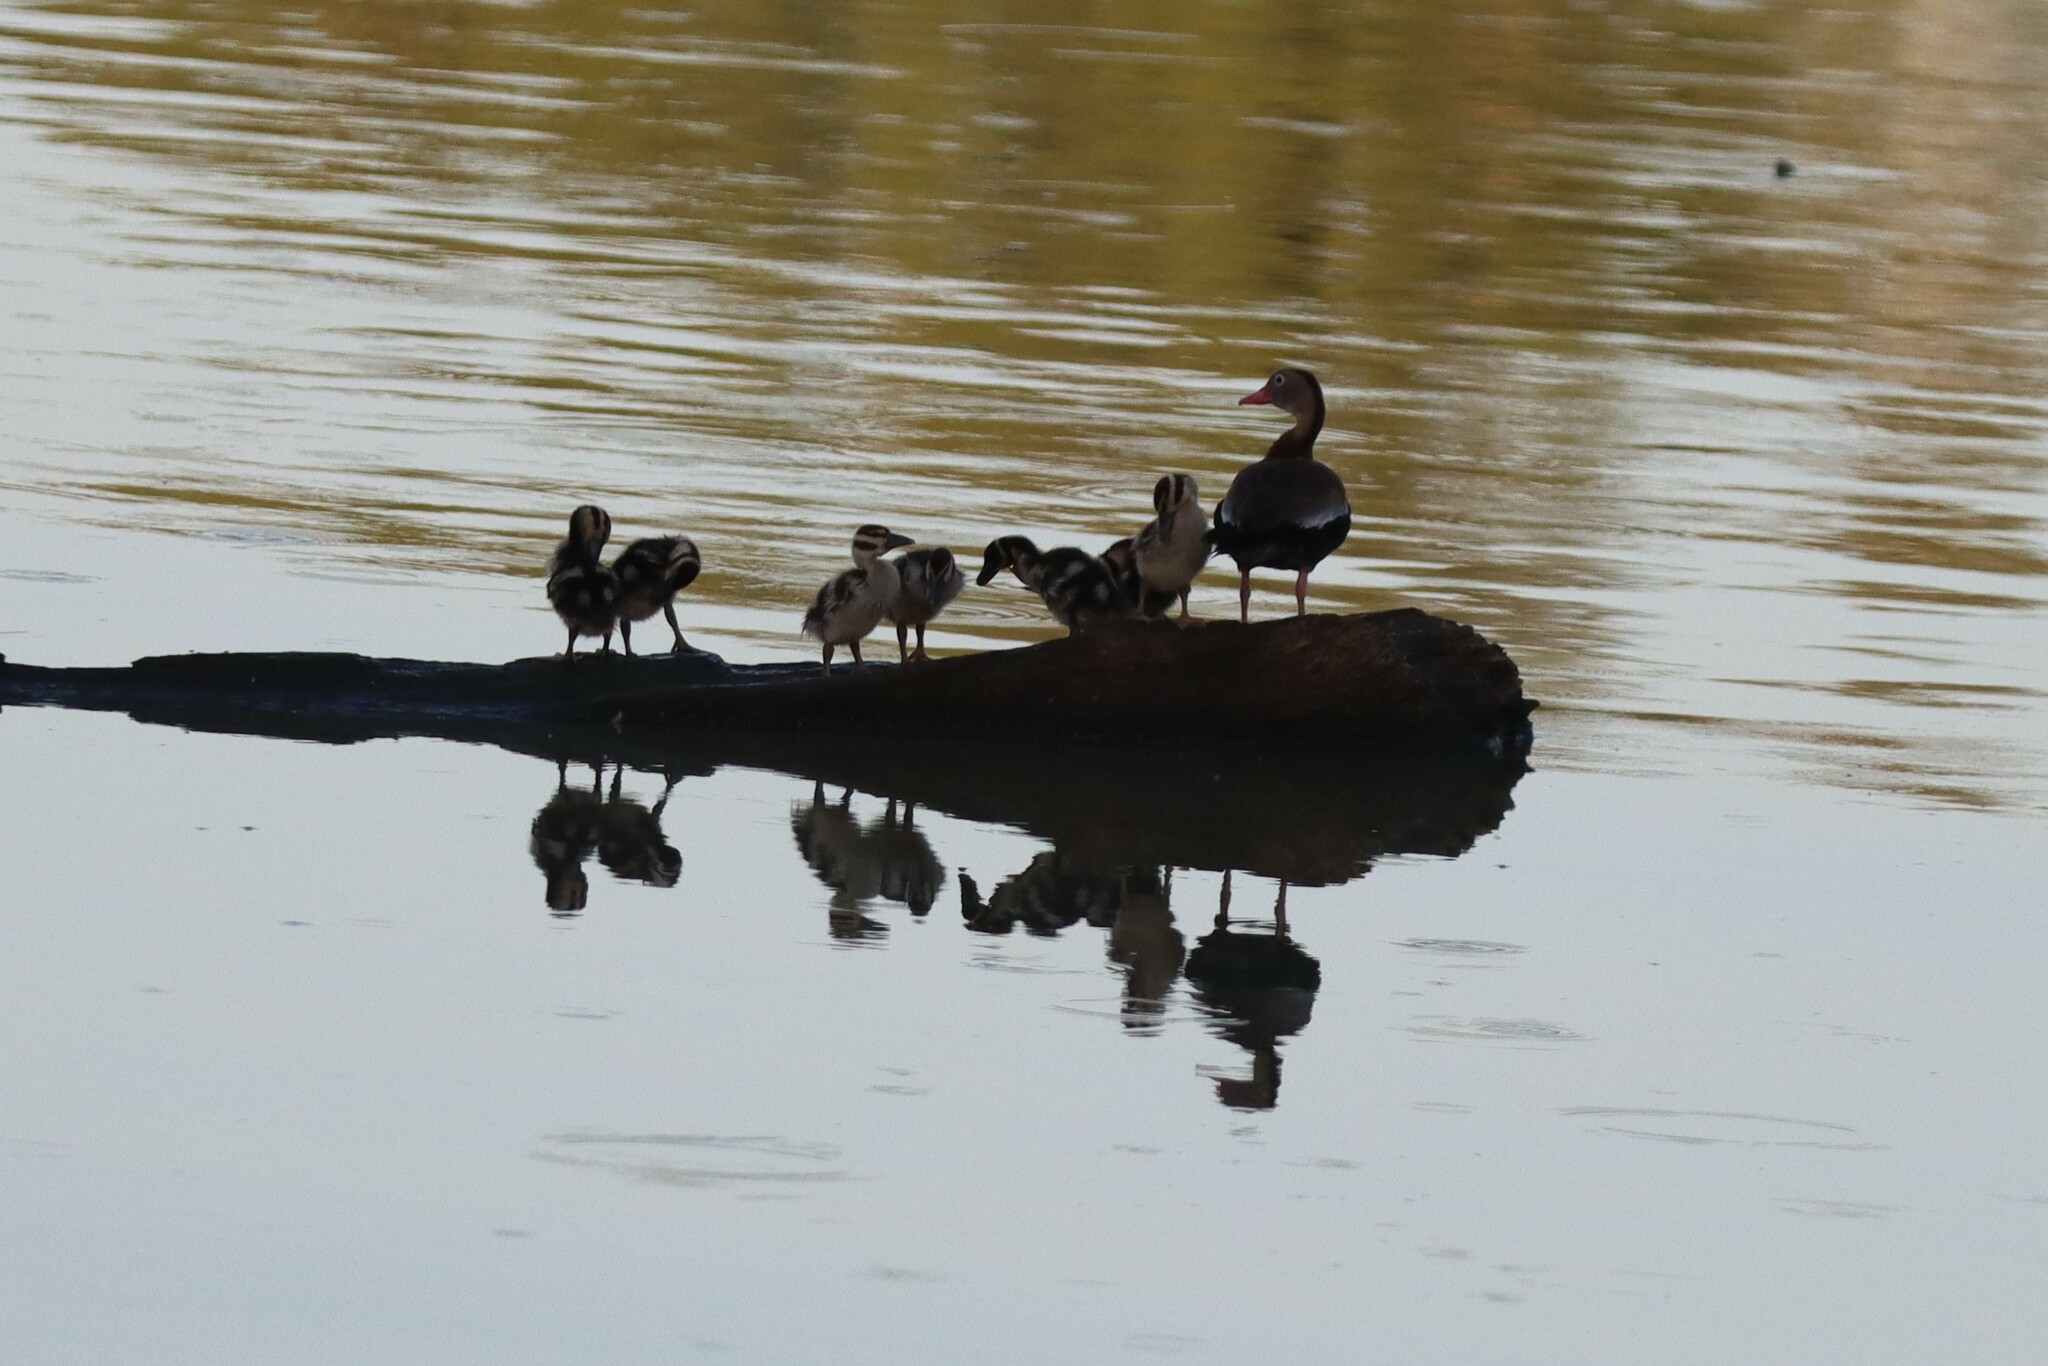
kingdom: Animalia
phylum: Chordata
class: Aves
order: Anseriformes
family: Anatidae
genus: Dendrocygna
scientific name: Dendrocygna autumnalis
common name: Black-bellied whistling duck
